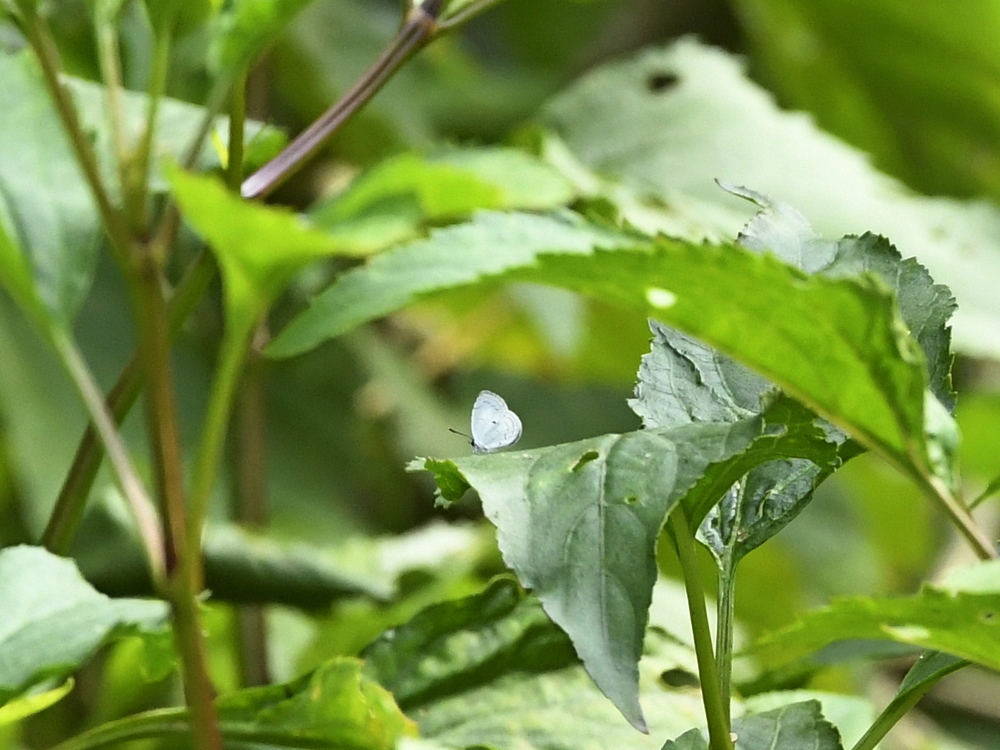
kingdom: Animalia
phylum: Arthropoda
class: Insecta
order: Lepidoptera
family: Lycaenidae
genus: Neopithecops
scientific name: Neopithecops zalmora
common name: Quaker
